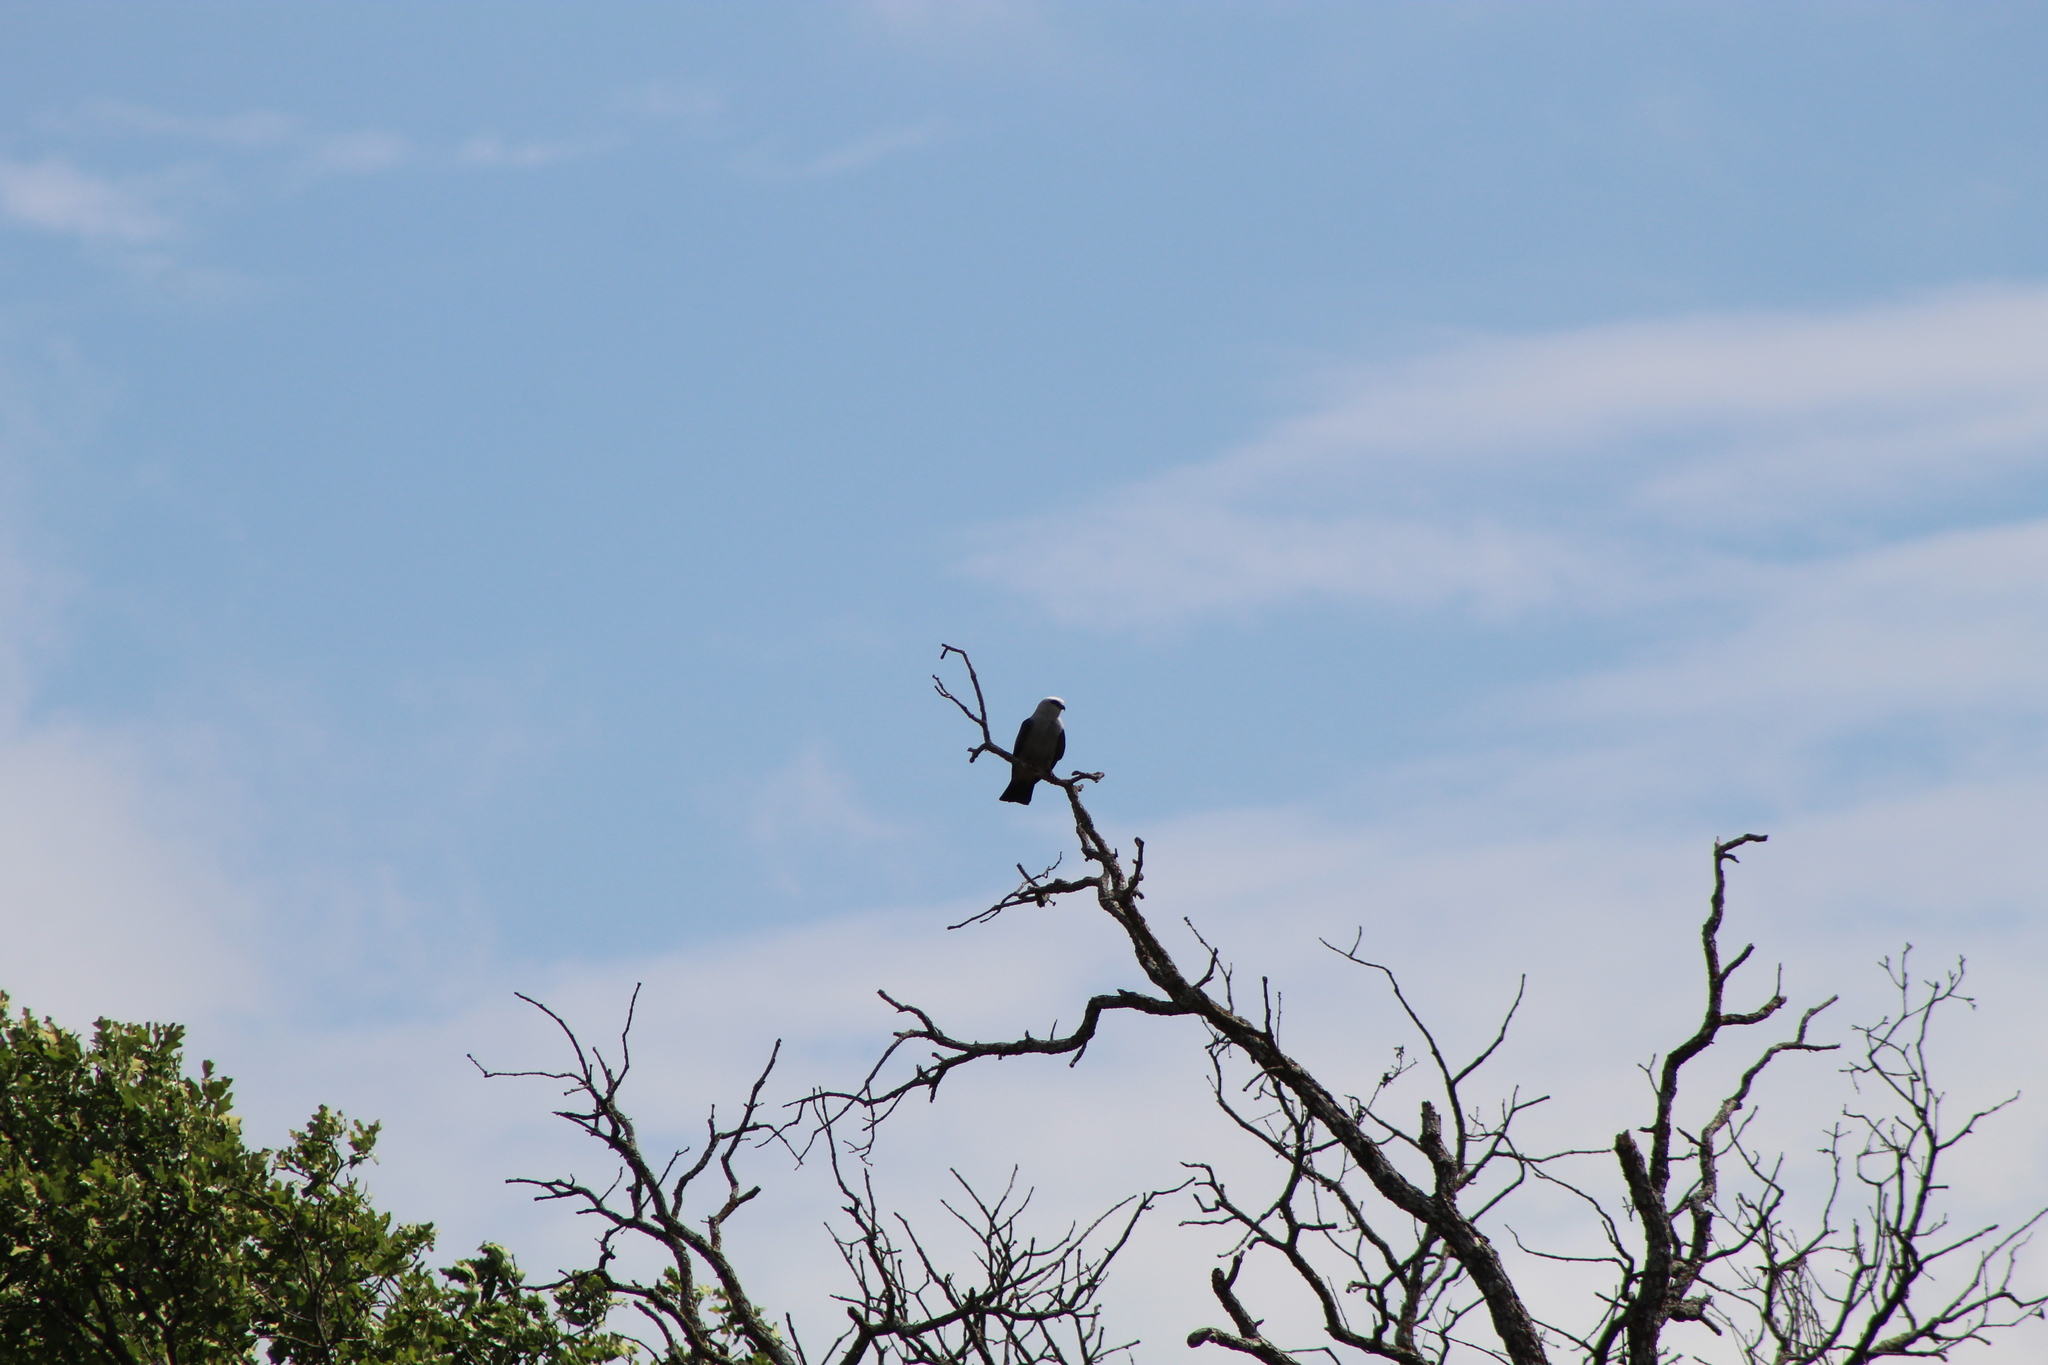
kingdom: Animalia
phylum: Chordata
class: Aves
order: Accipitriformes
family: Accipitridae
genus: Ictinia
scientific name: Ictinia mississippiensis
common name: Mississippi kite
